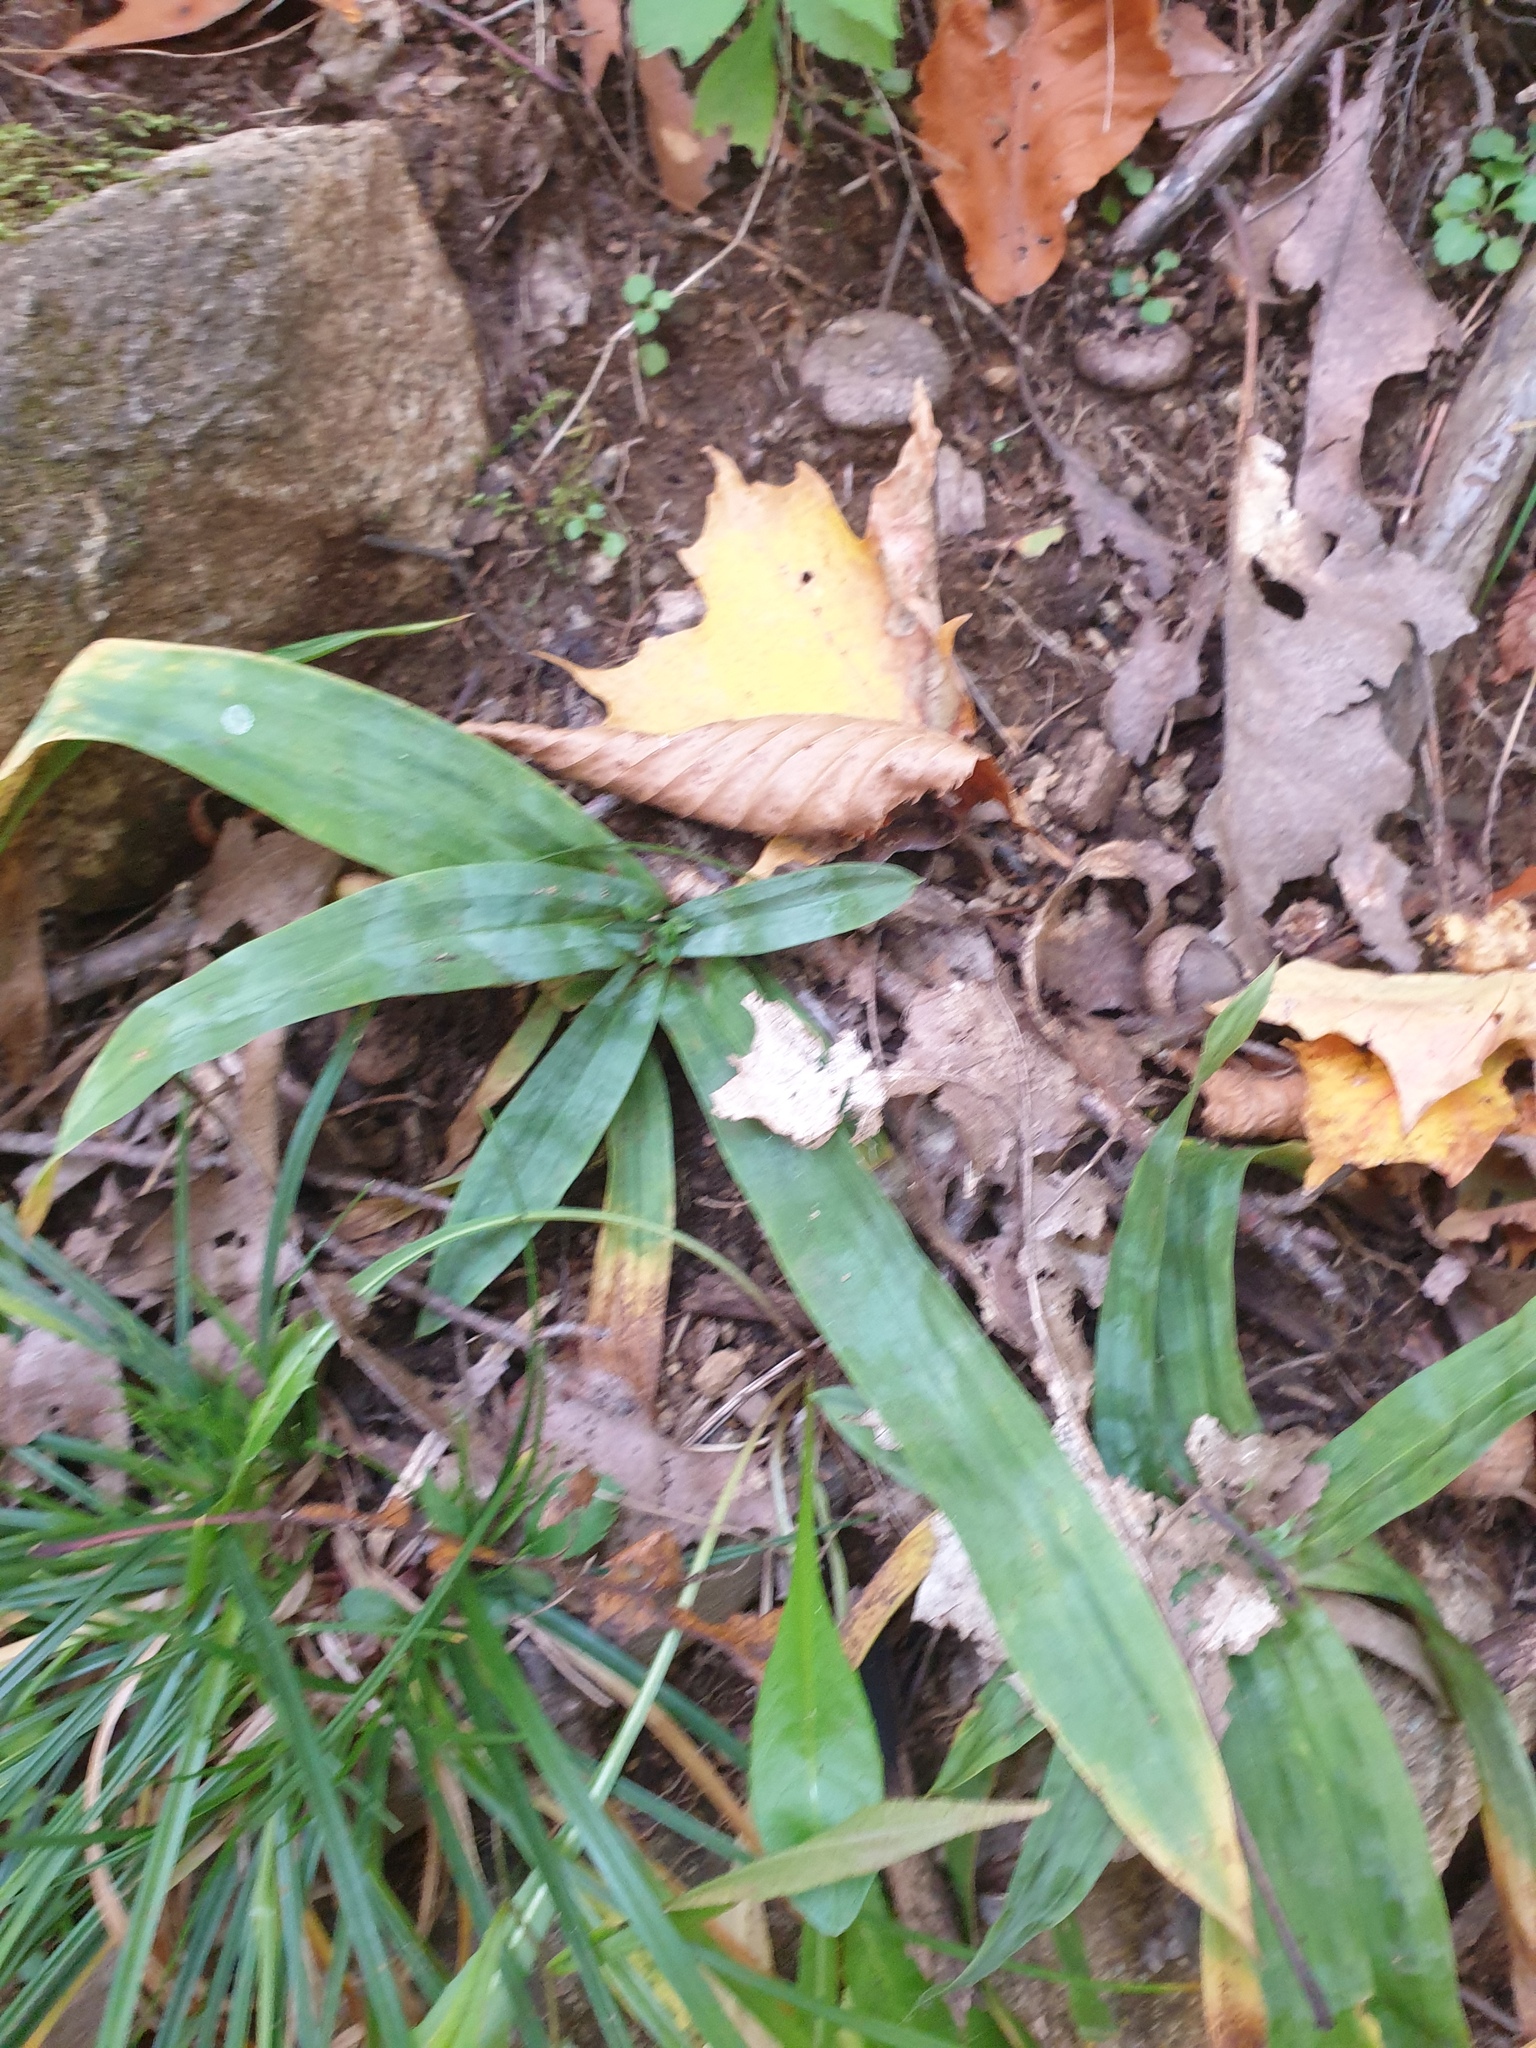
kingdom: Plantae
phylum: Tracheophyta
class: Liliopsida
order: Poales
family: Cyperaceae
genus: Carex
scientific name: Carex platyphylla
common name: Broad-leaved sedge
